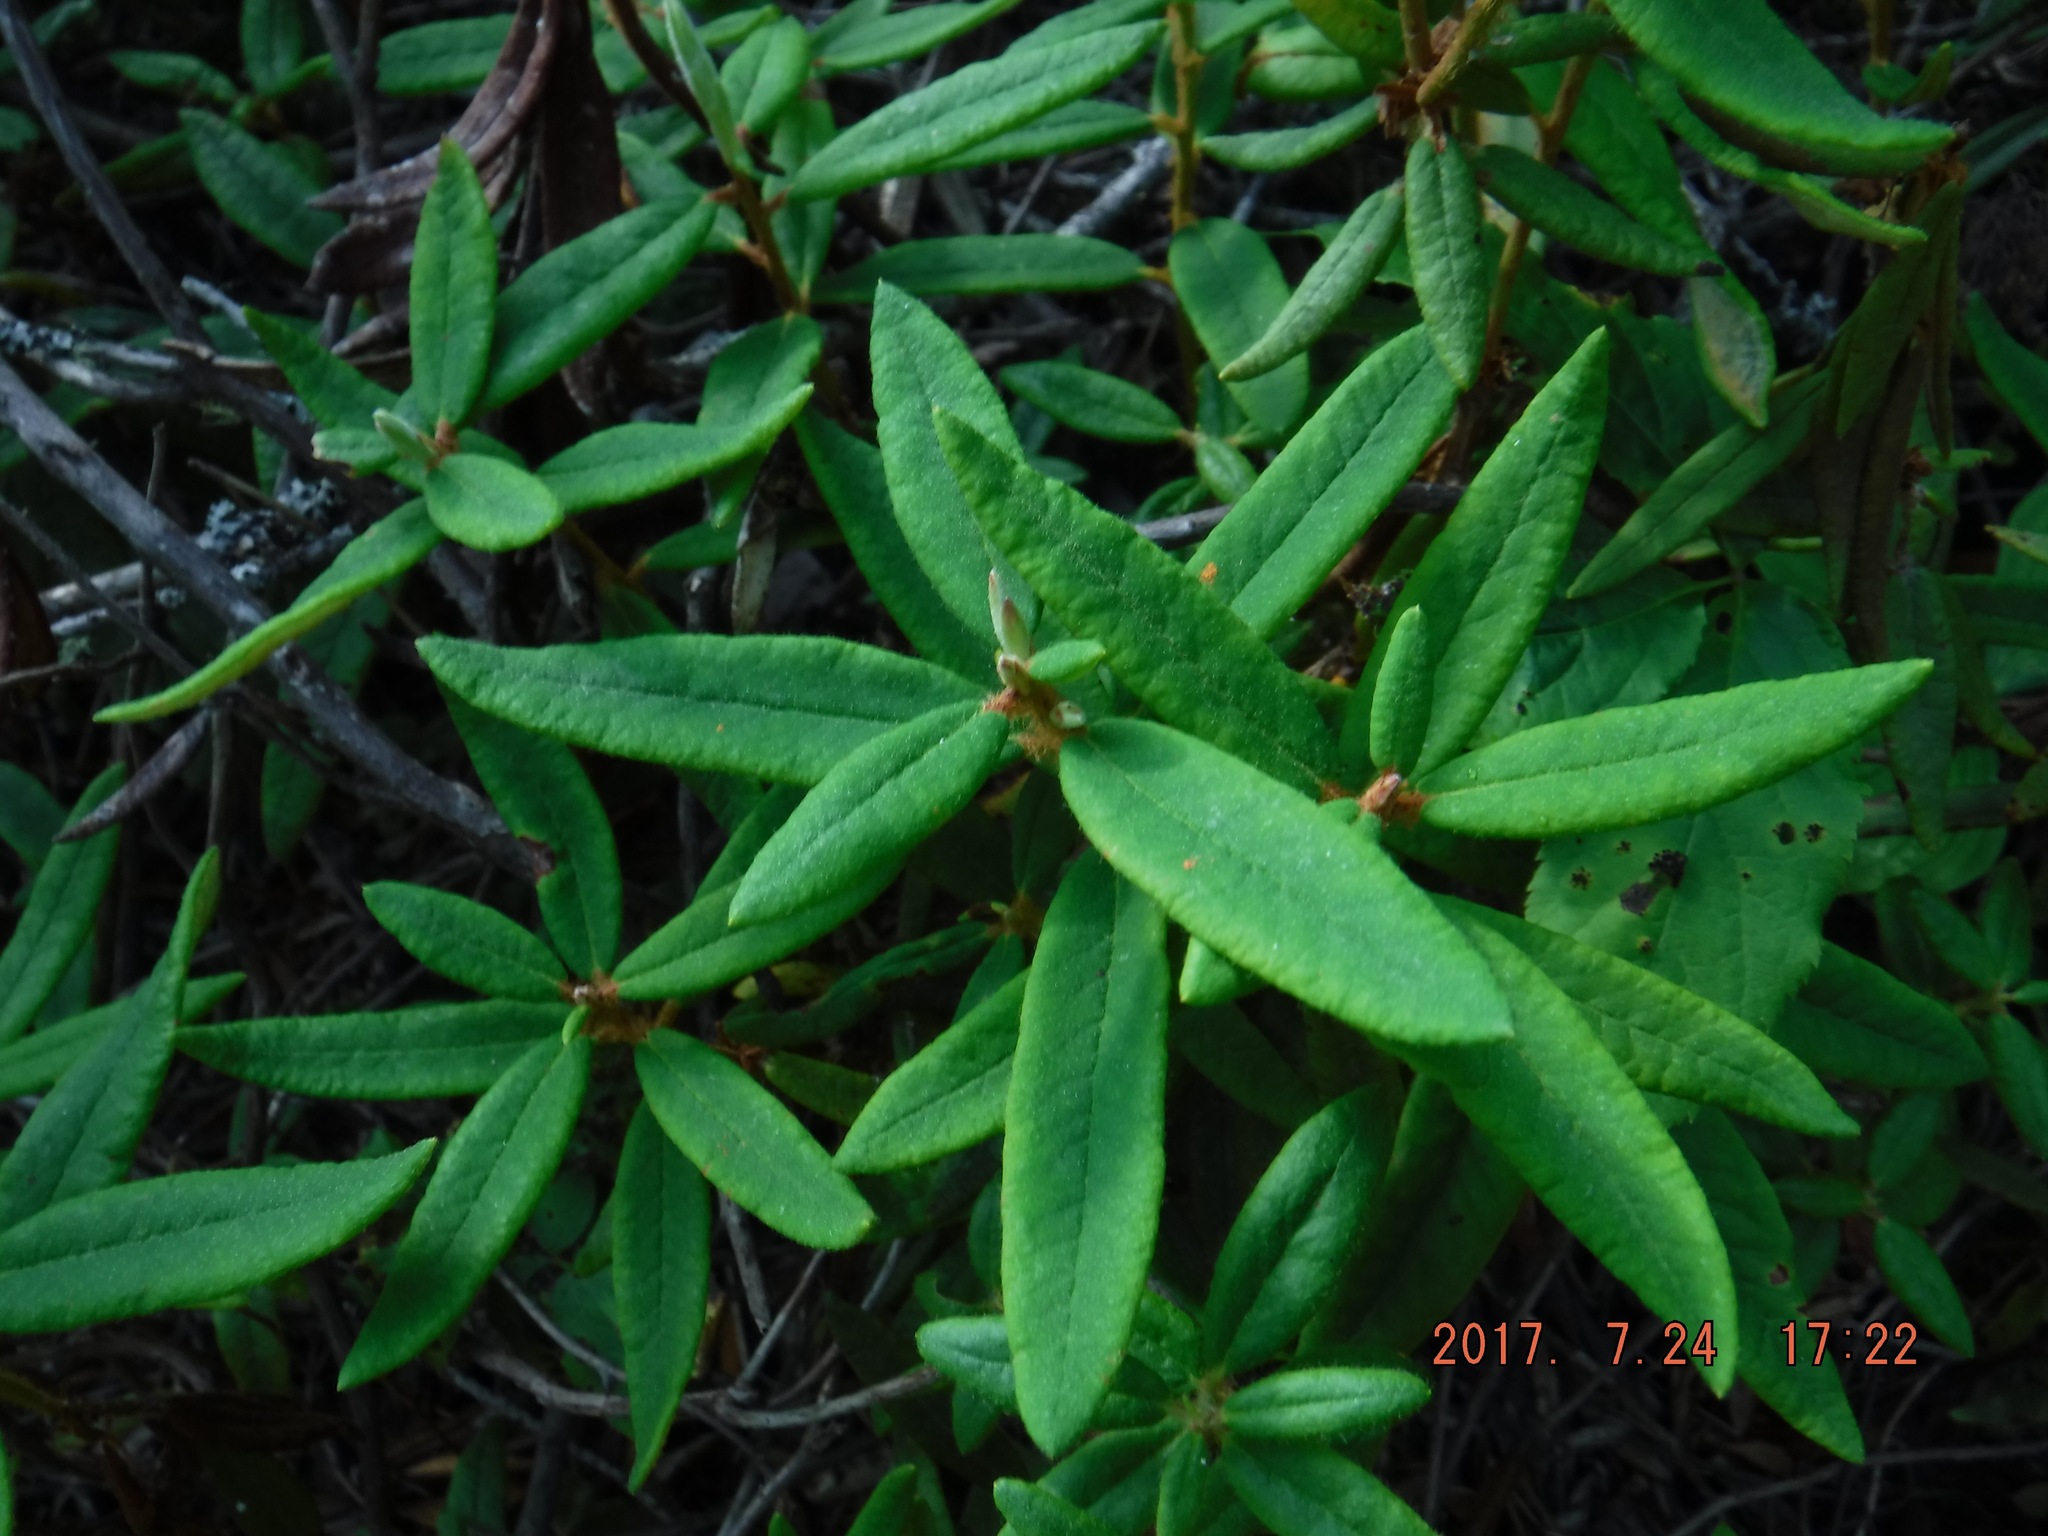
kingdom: Plantae
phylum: Tracheophyta
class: Magnoliopsida
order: Ericales
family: Ericaceae
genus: Rhododendron
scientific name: Rhododendron groenlandicum
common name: Bog labrador tea
